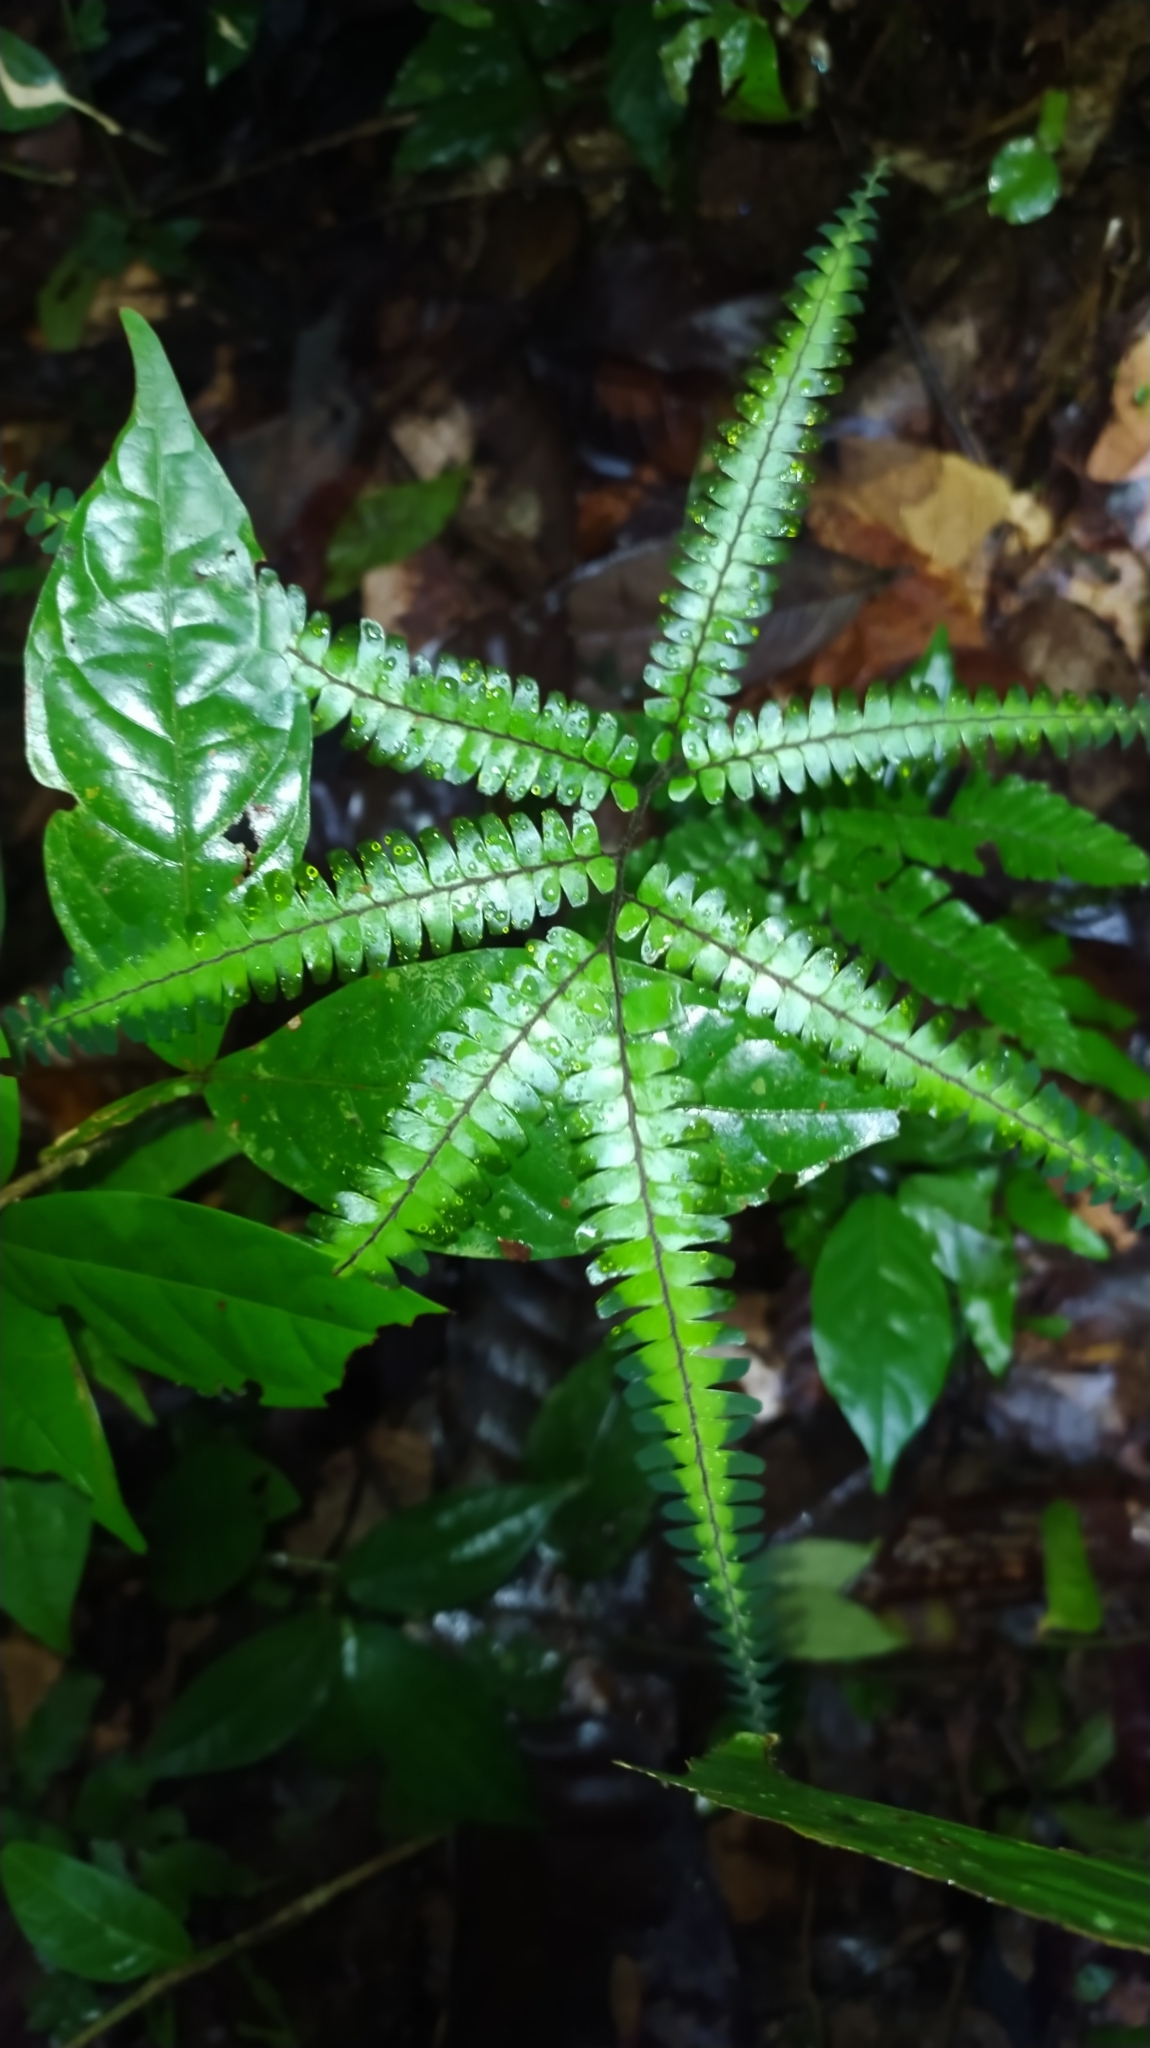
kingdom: Plantae
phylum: Tracheophyta
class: Polypodiopsida
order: Polypodiales
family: Pteridaceae
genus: Adiantum
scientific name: Adiantum
